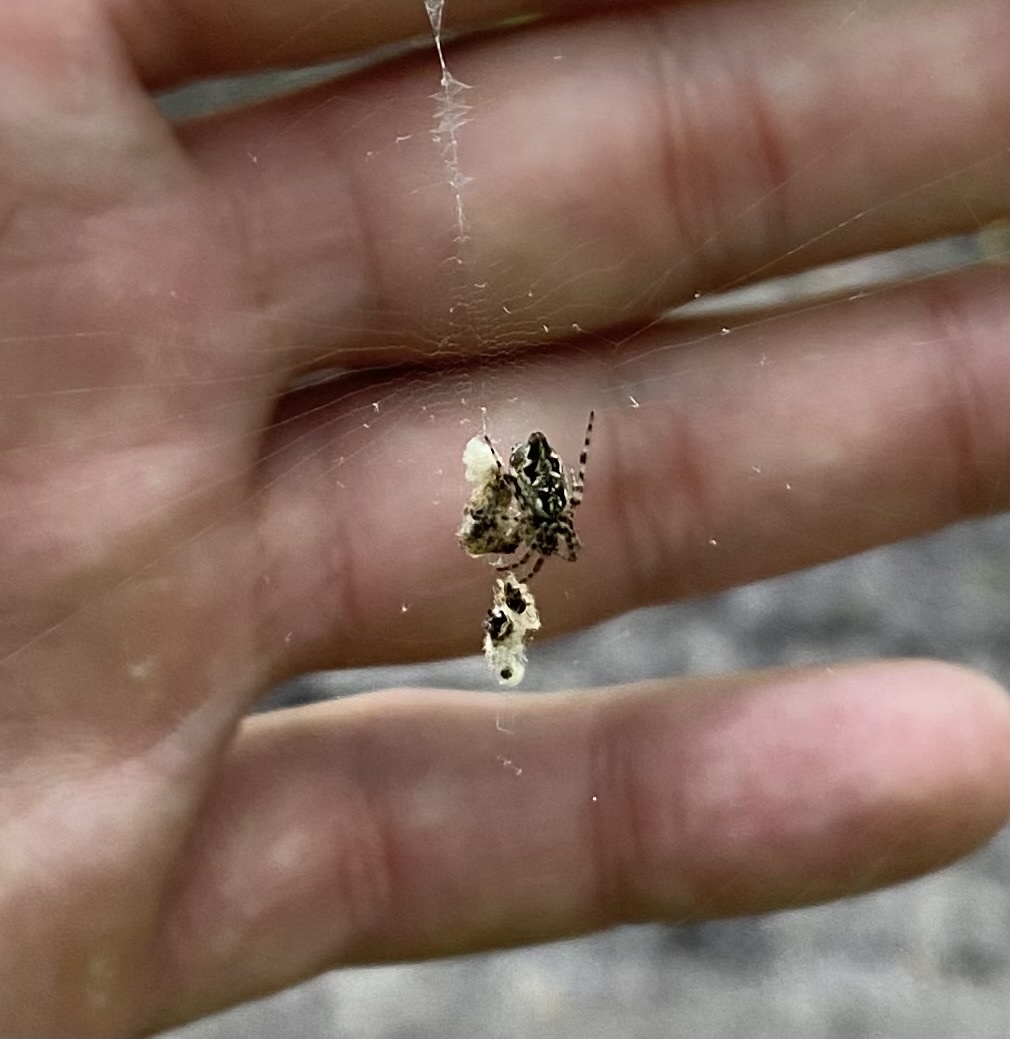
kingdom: Animalia
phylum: Arthropoda
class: Arachnida
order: Araneae
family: Araneidae
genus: Cyclosa
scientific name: Cyclosa conica
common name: Conical trashline orbweaver
